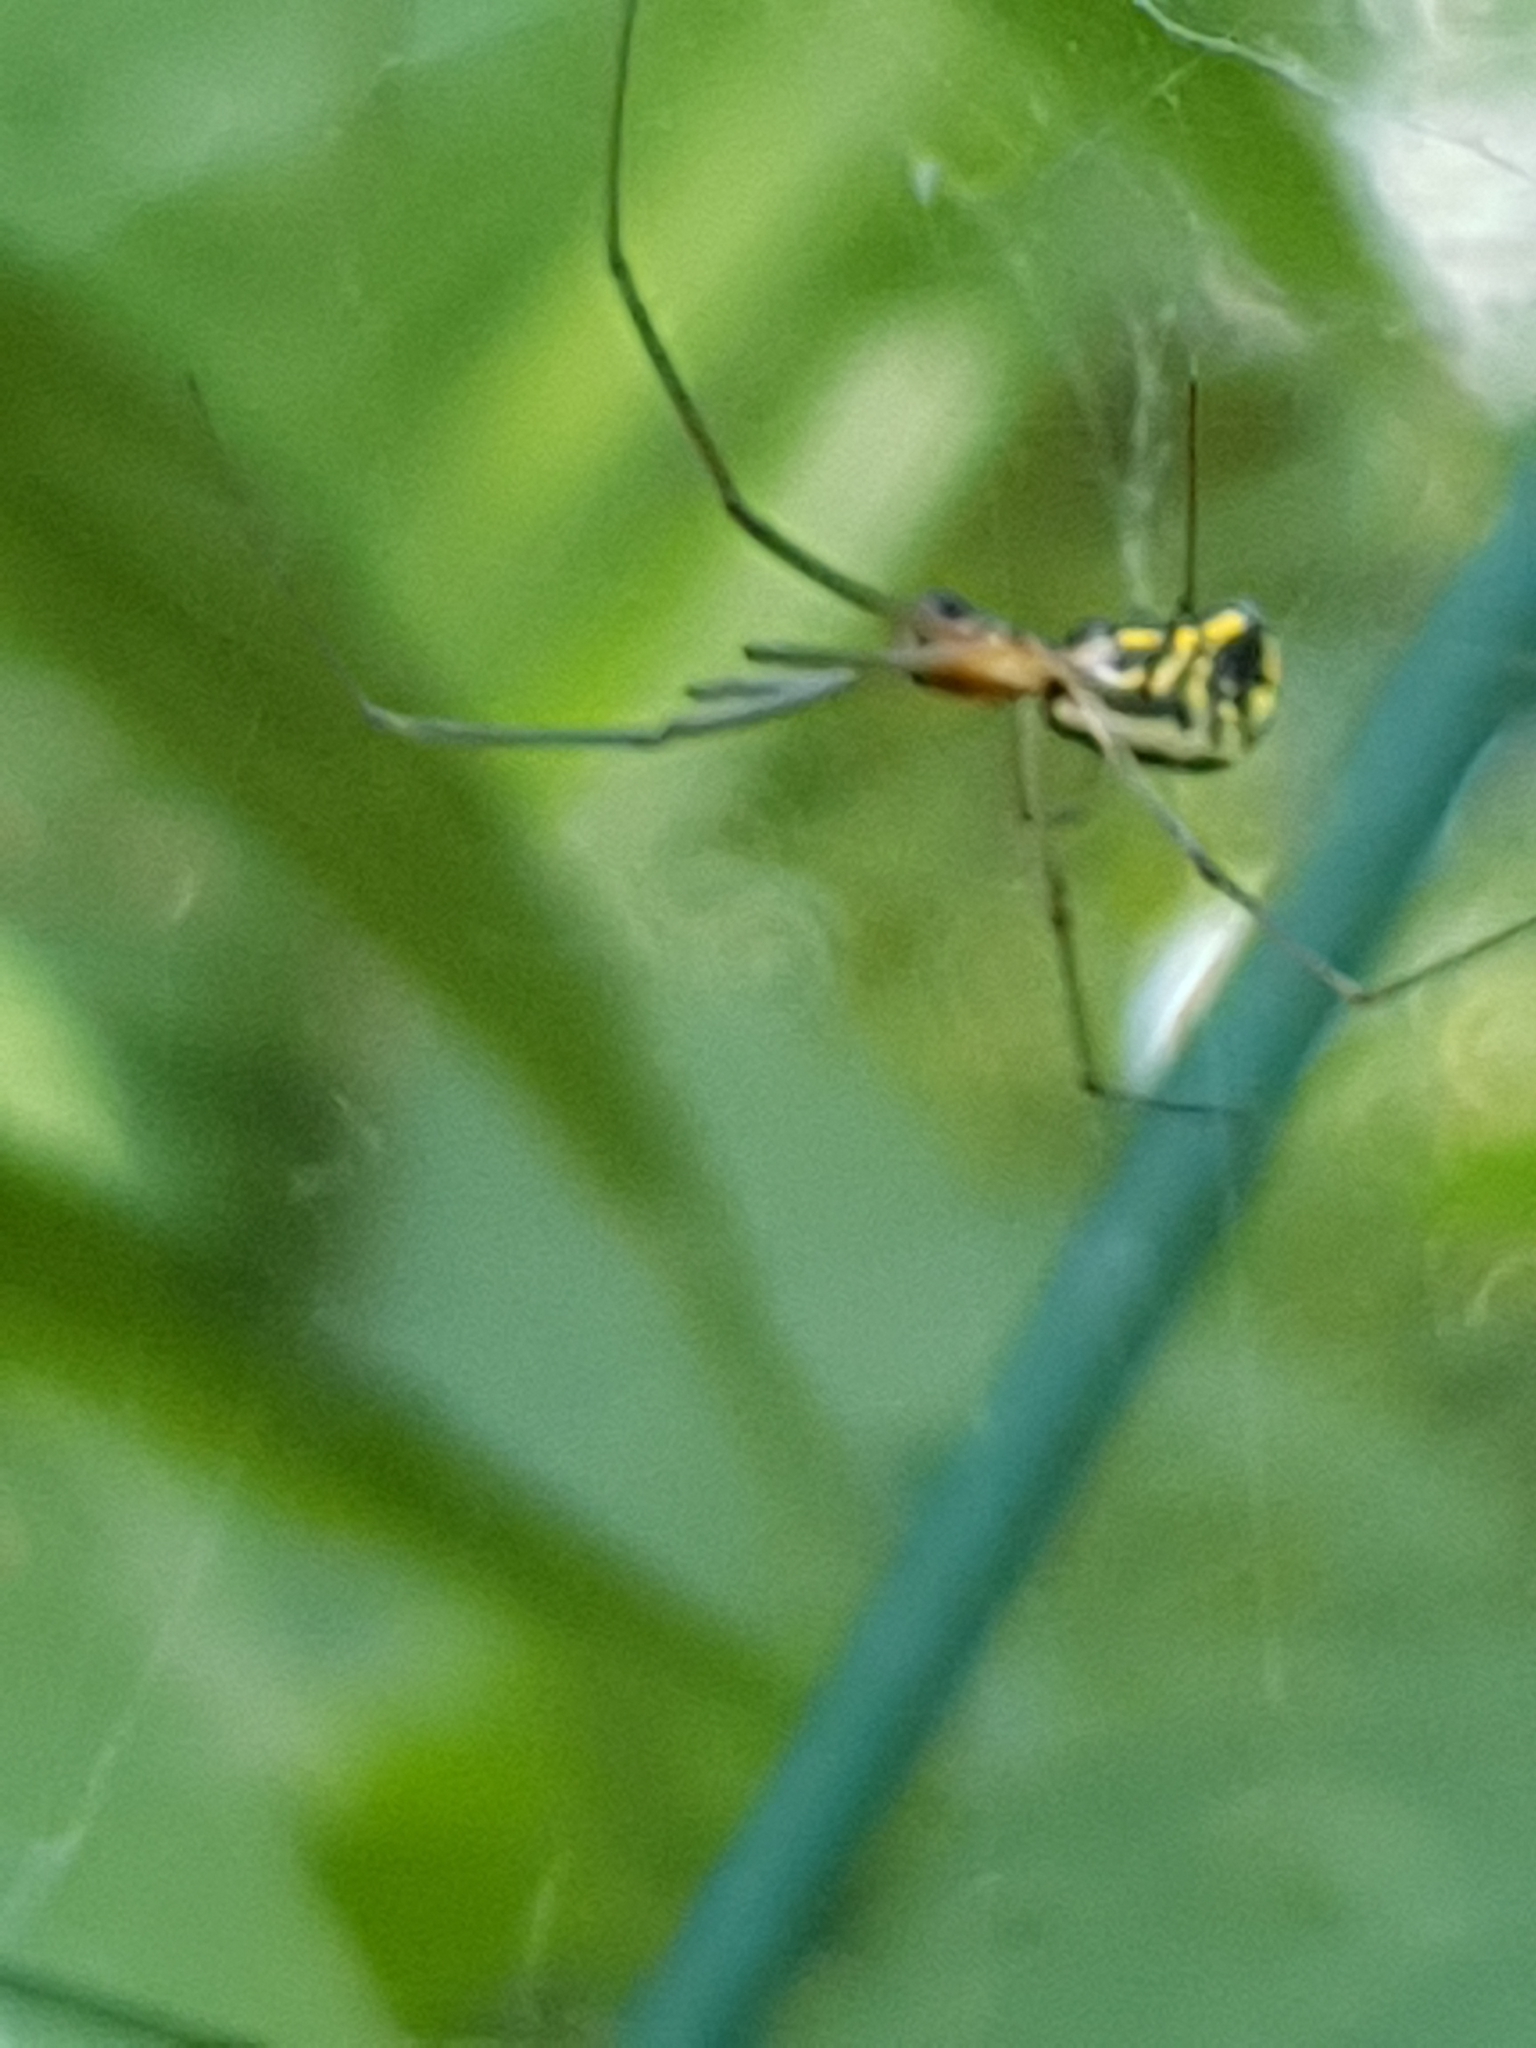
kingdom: Animalia
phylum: Arthropoda
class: Arachnida
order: Araneae
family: Linyphiidae
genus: Neriene
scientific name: Neriene radiata
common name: Filmy dome spider
